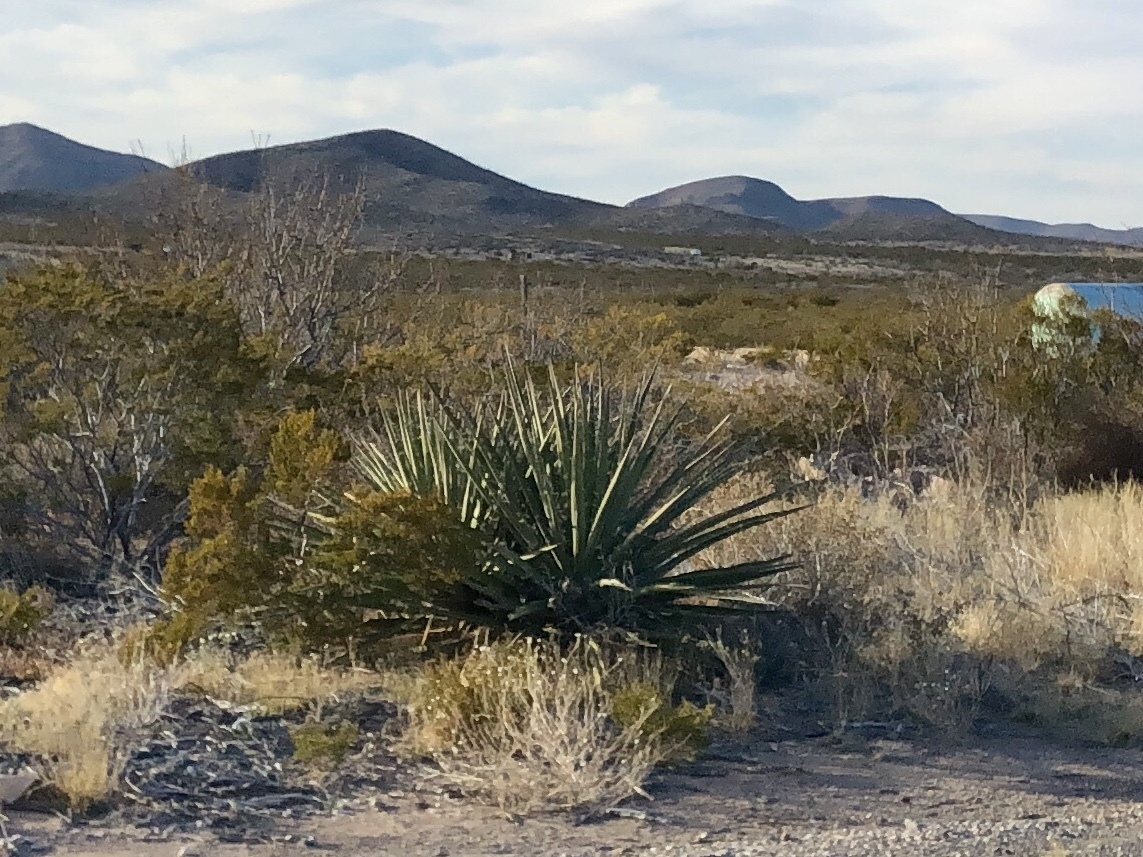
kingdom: Plantae
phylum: Tracheophyta
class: Liliopsida
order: Asparagales
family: Asparagaceae
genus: Yucca
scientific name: Yucca baccata
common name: Banana yucca
